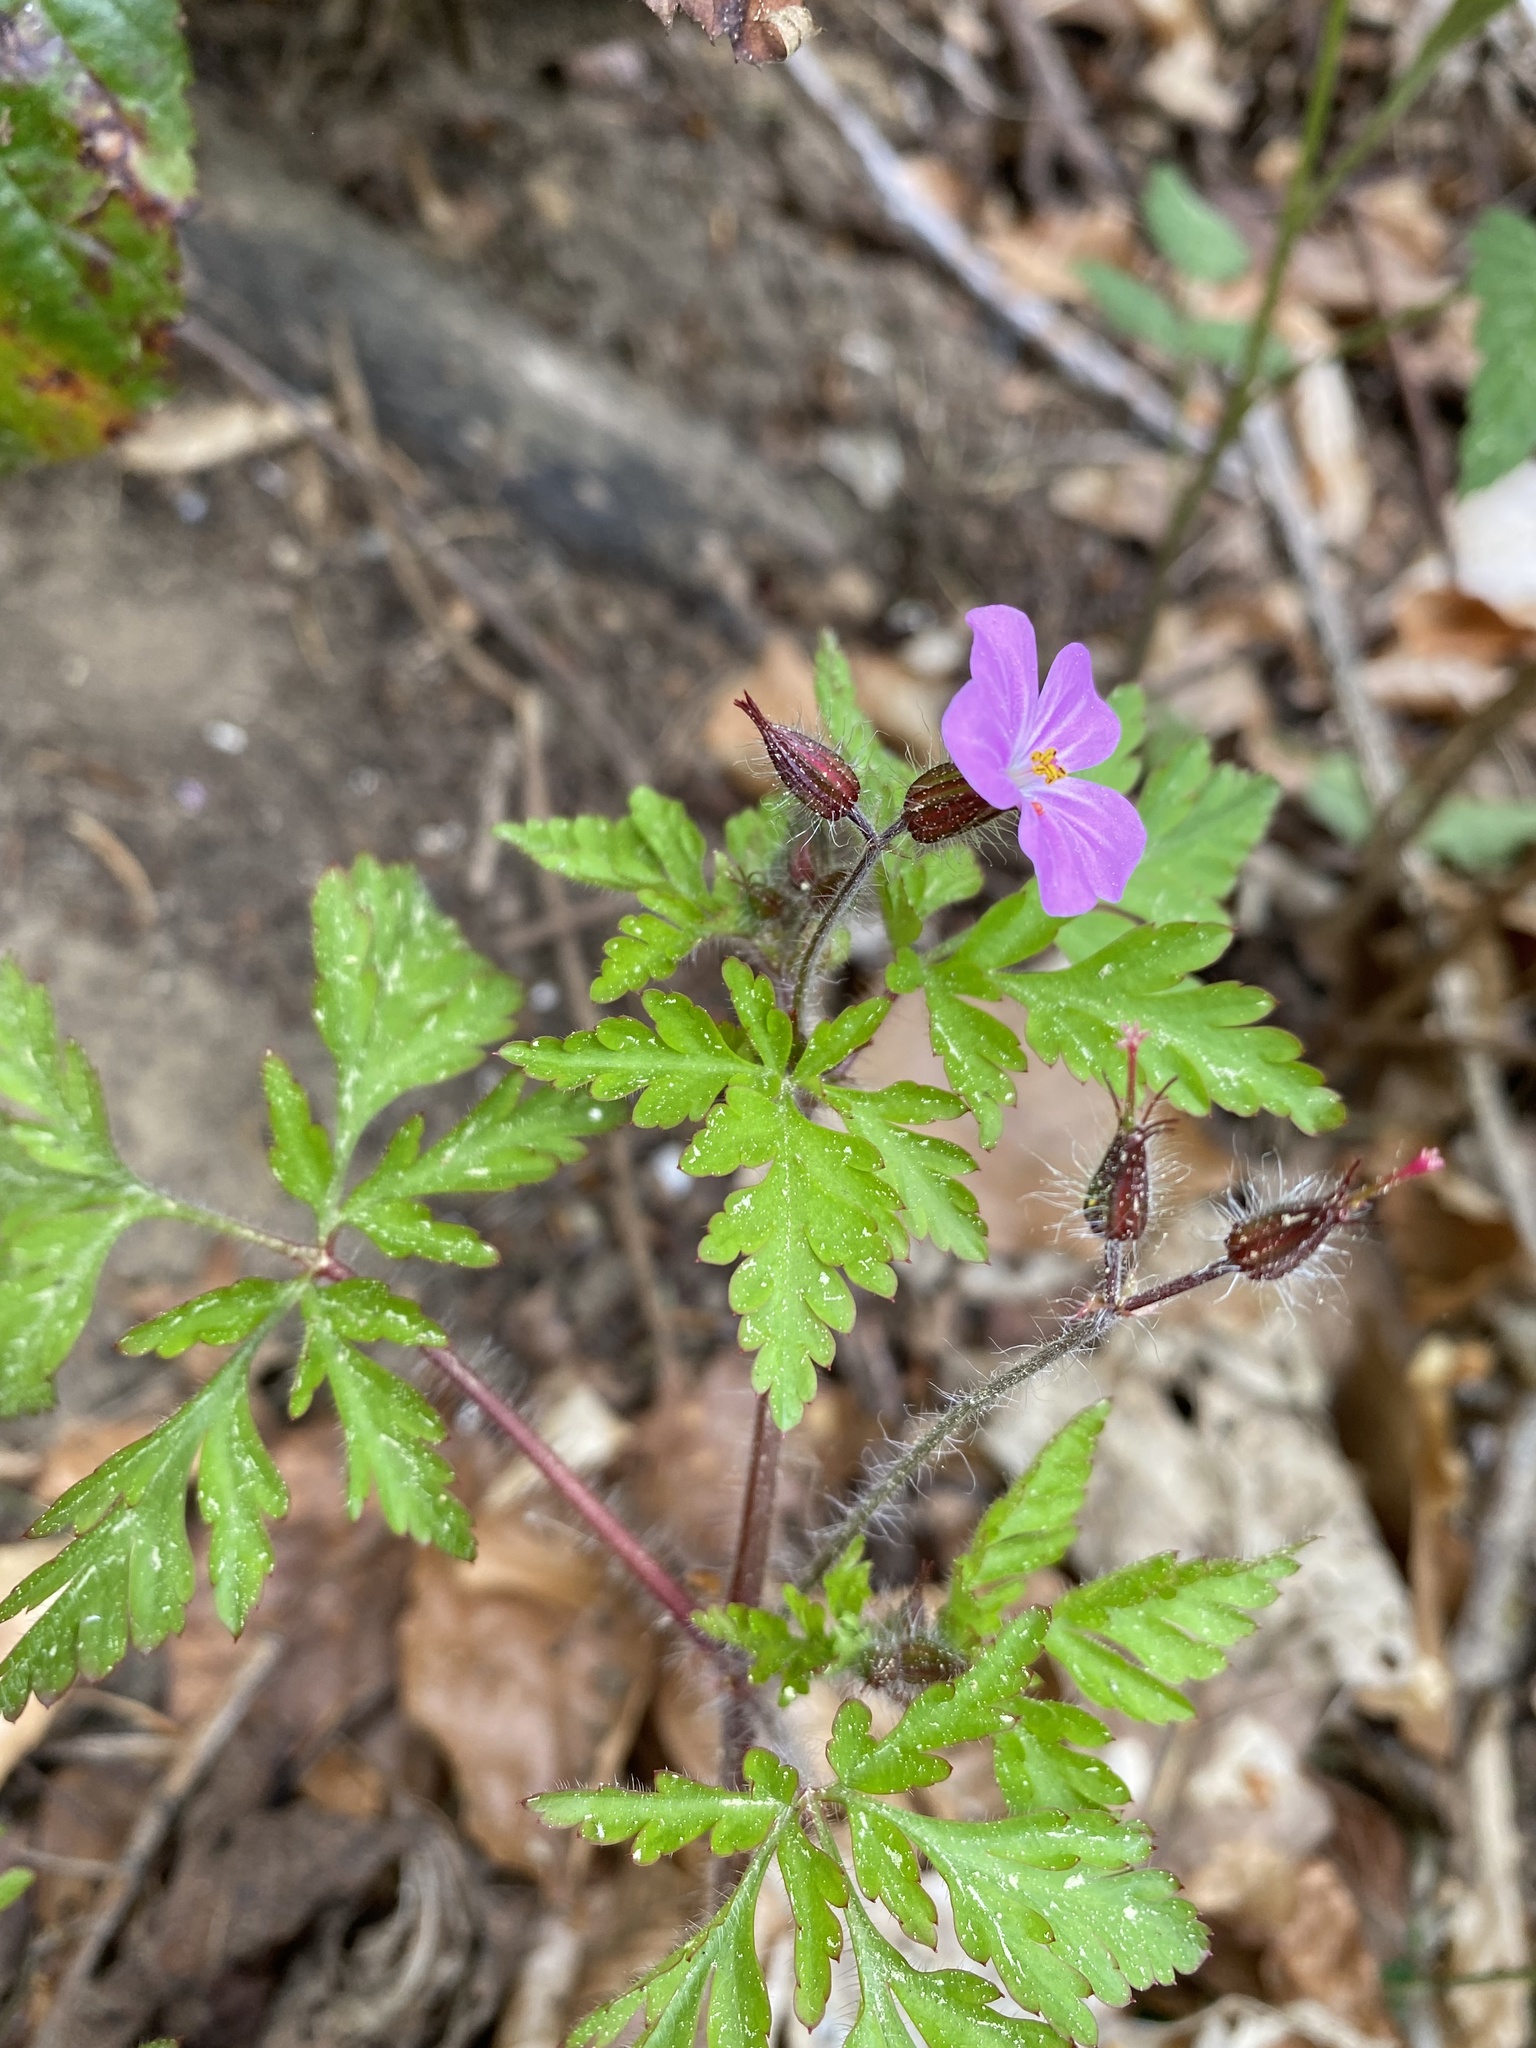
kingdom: Plantae
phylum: Tracheophyta
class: Magnoliopsida
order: Geraniales
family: Geraniaceae
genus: Geranium
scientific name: Geranium robertianum
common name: Herb-robert
